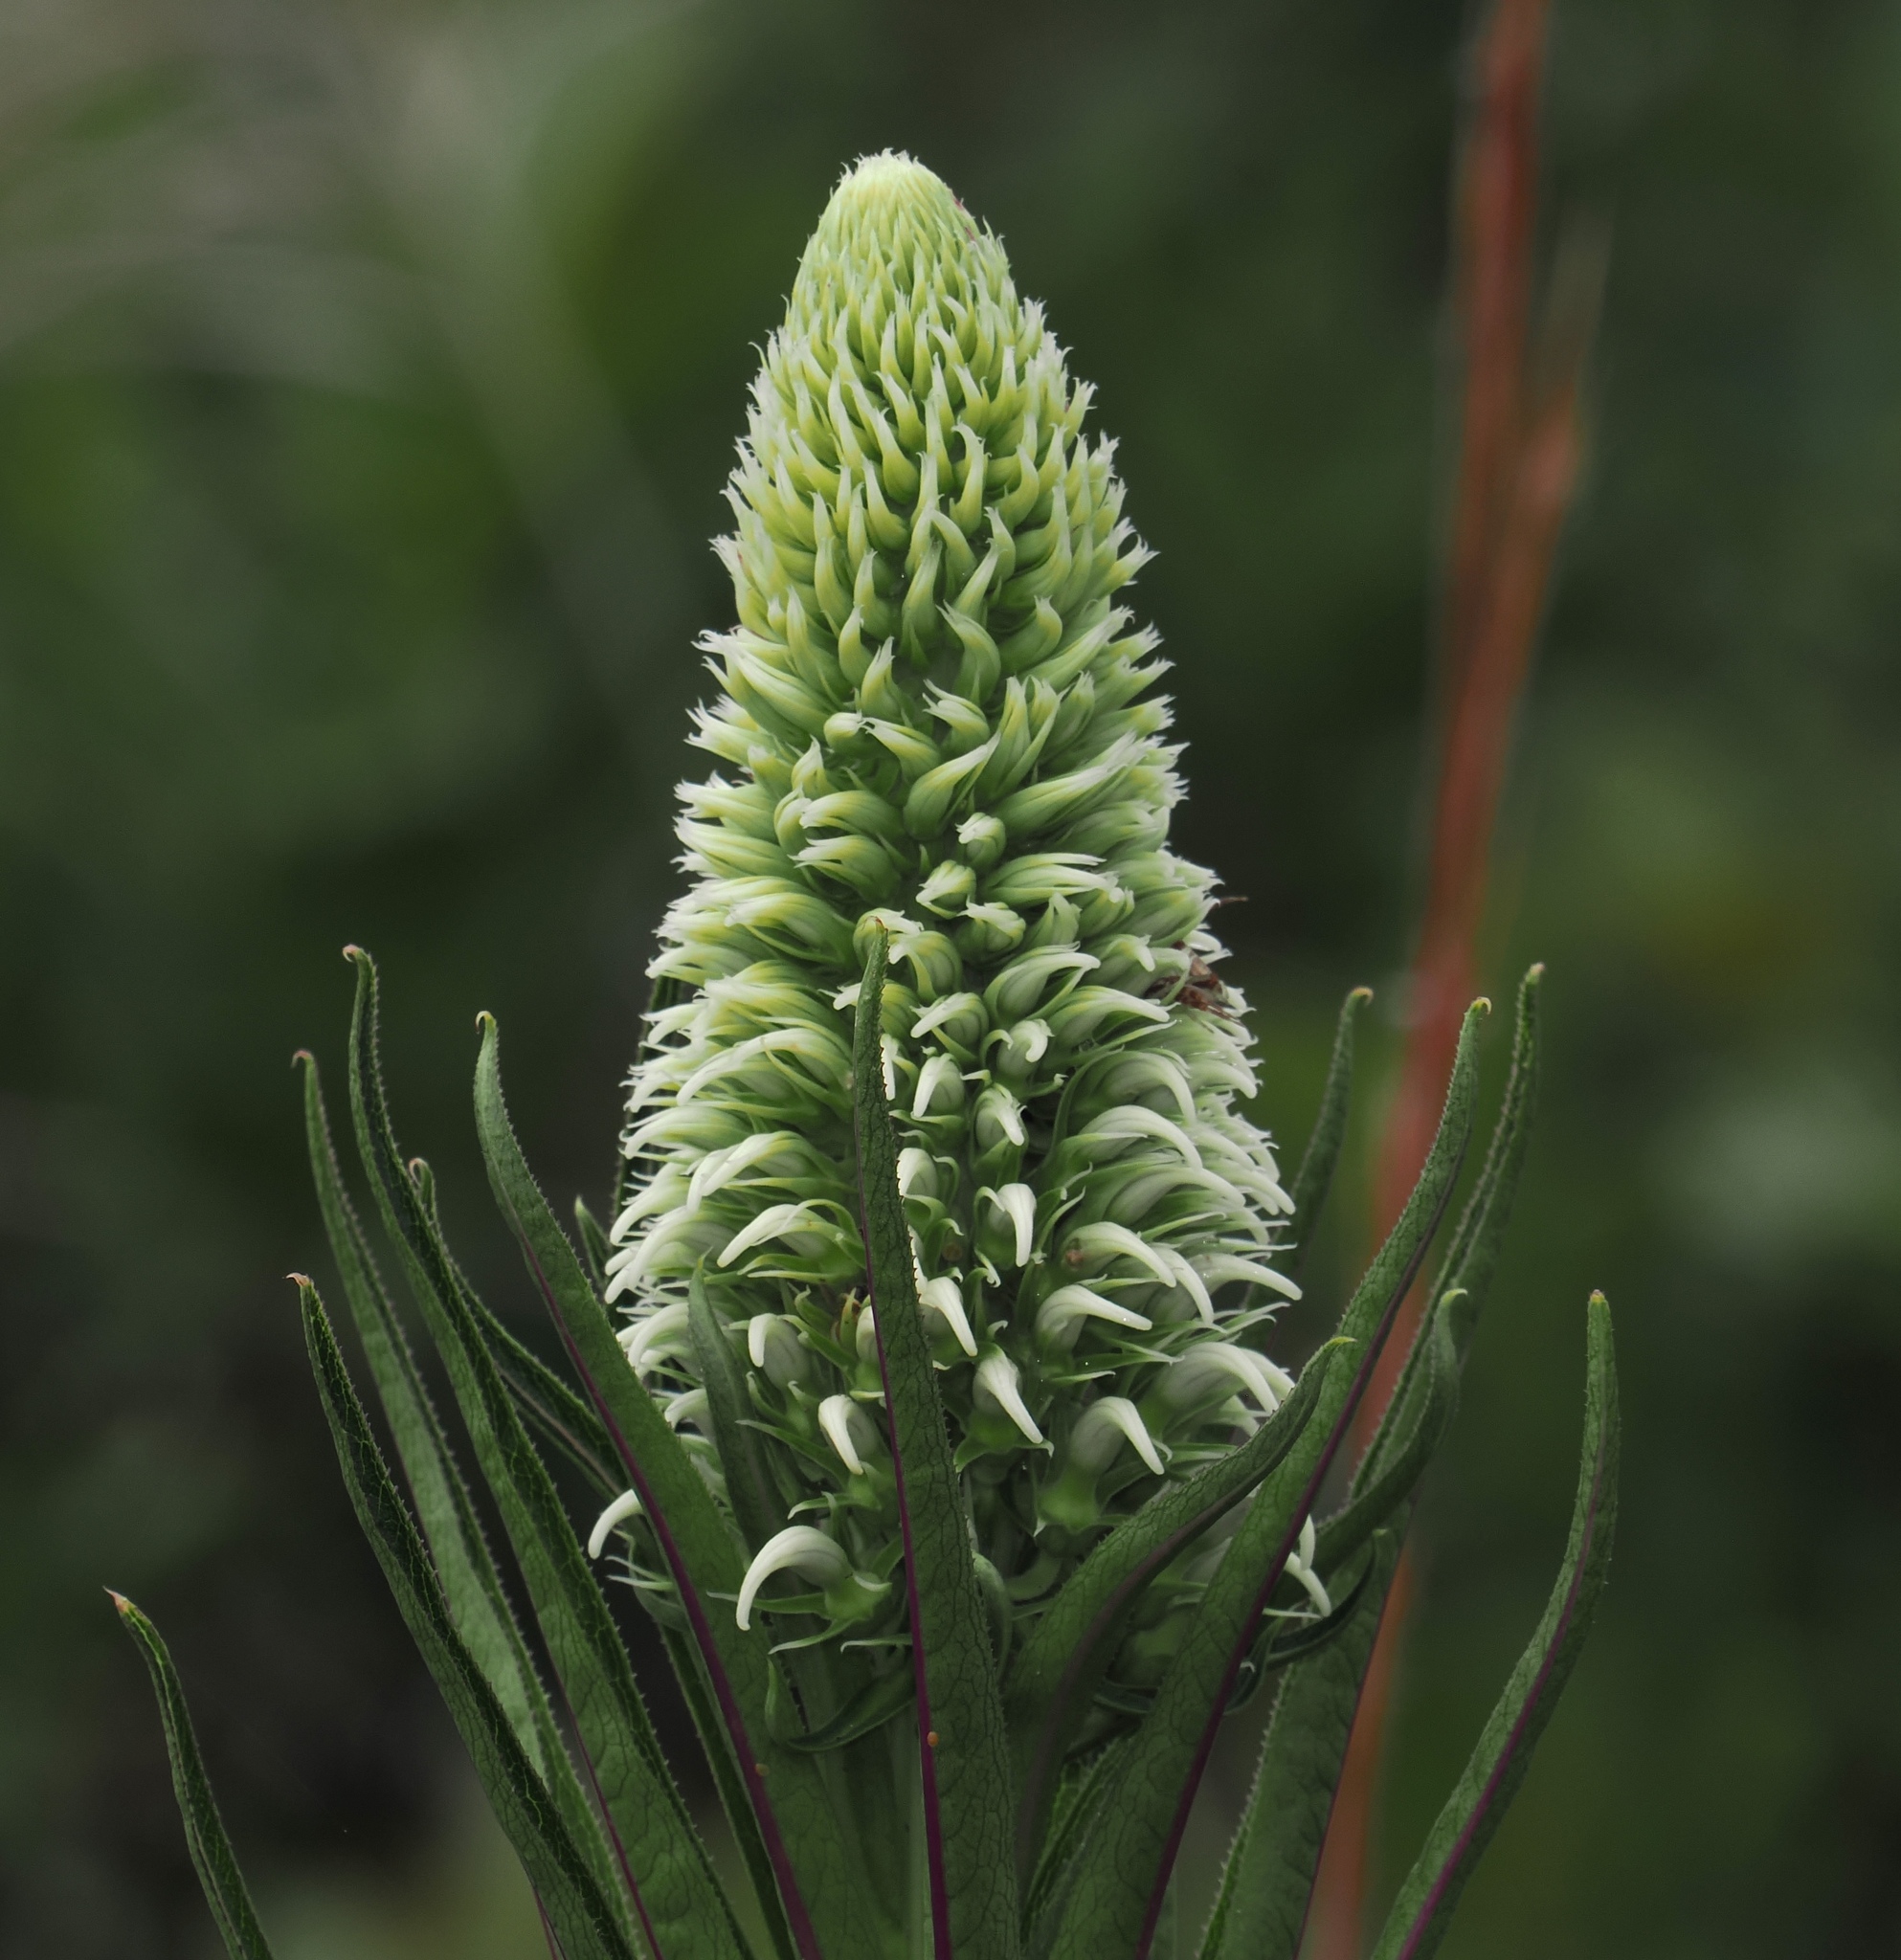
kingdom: Plantae
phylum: Tracheophyta
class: Magnoliopsida
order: Asterales
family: Campanulaceae
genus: Lobelia
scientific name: Lobelia exaltata
